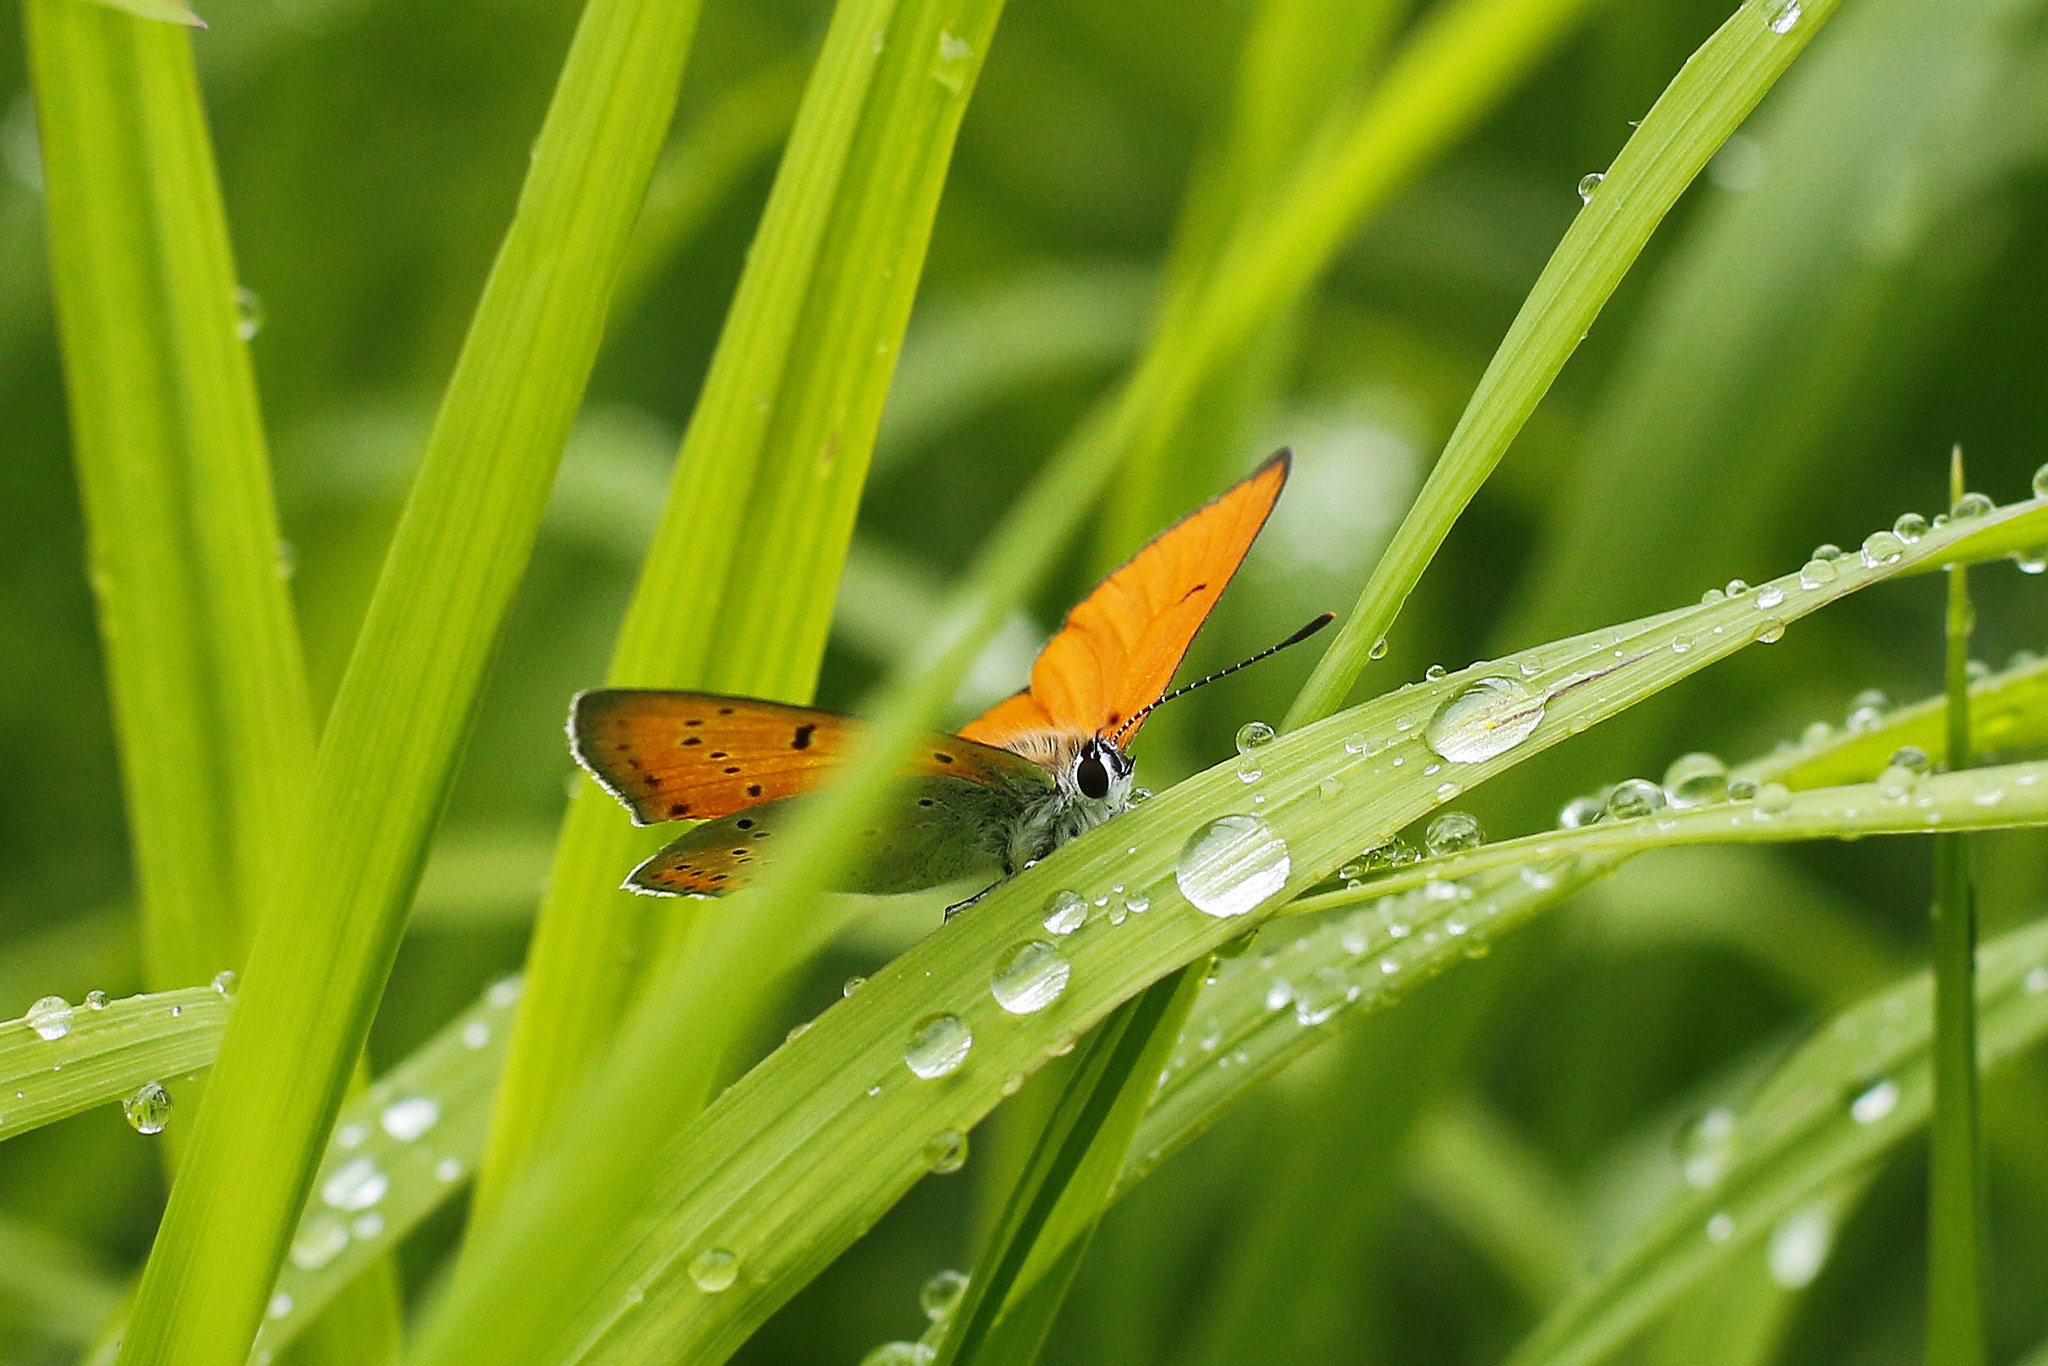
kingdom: Animalia
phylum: Arthropoda
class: Insecta
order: Lepidoptera
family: Lycaenidae
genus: Lycaena
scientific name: Lycaena dispar
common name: Large copper
